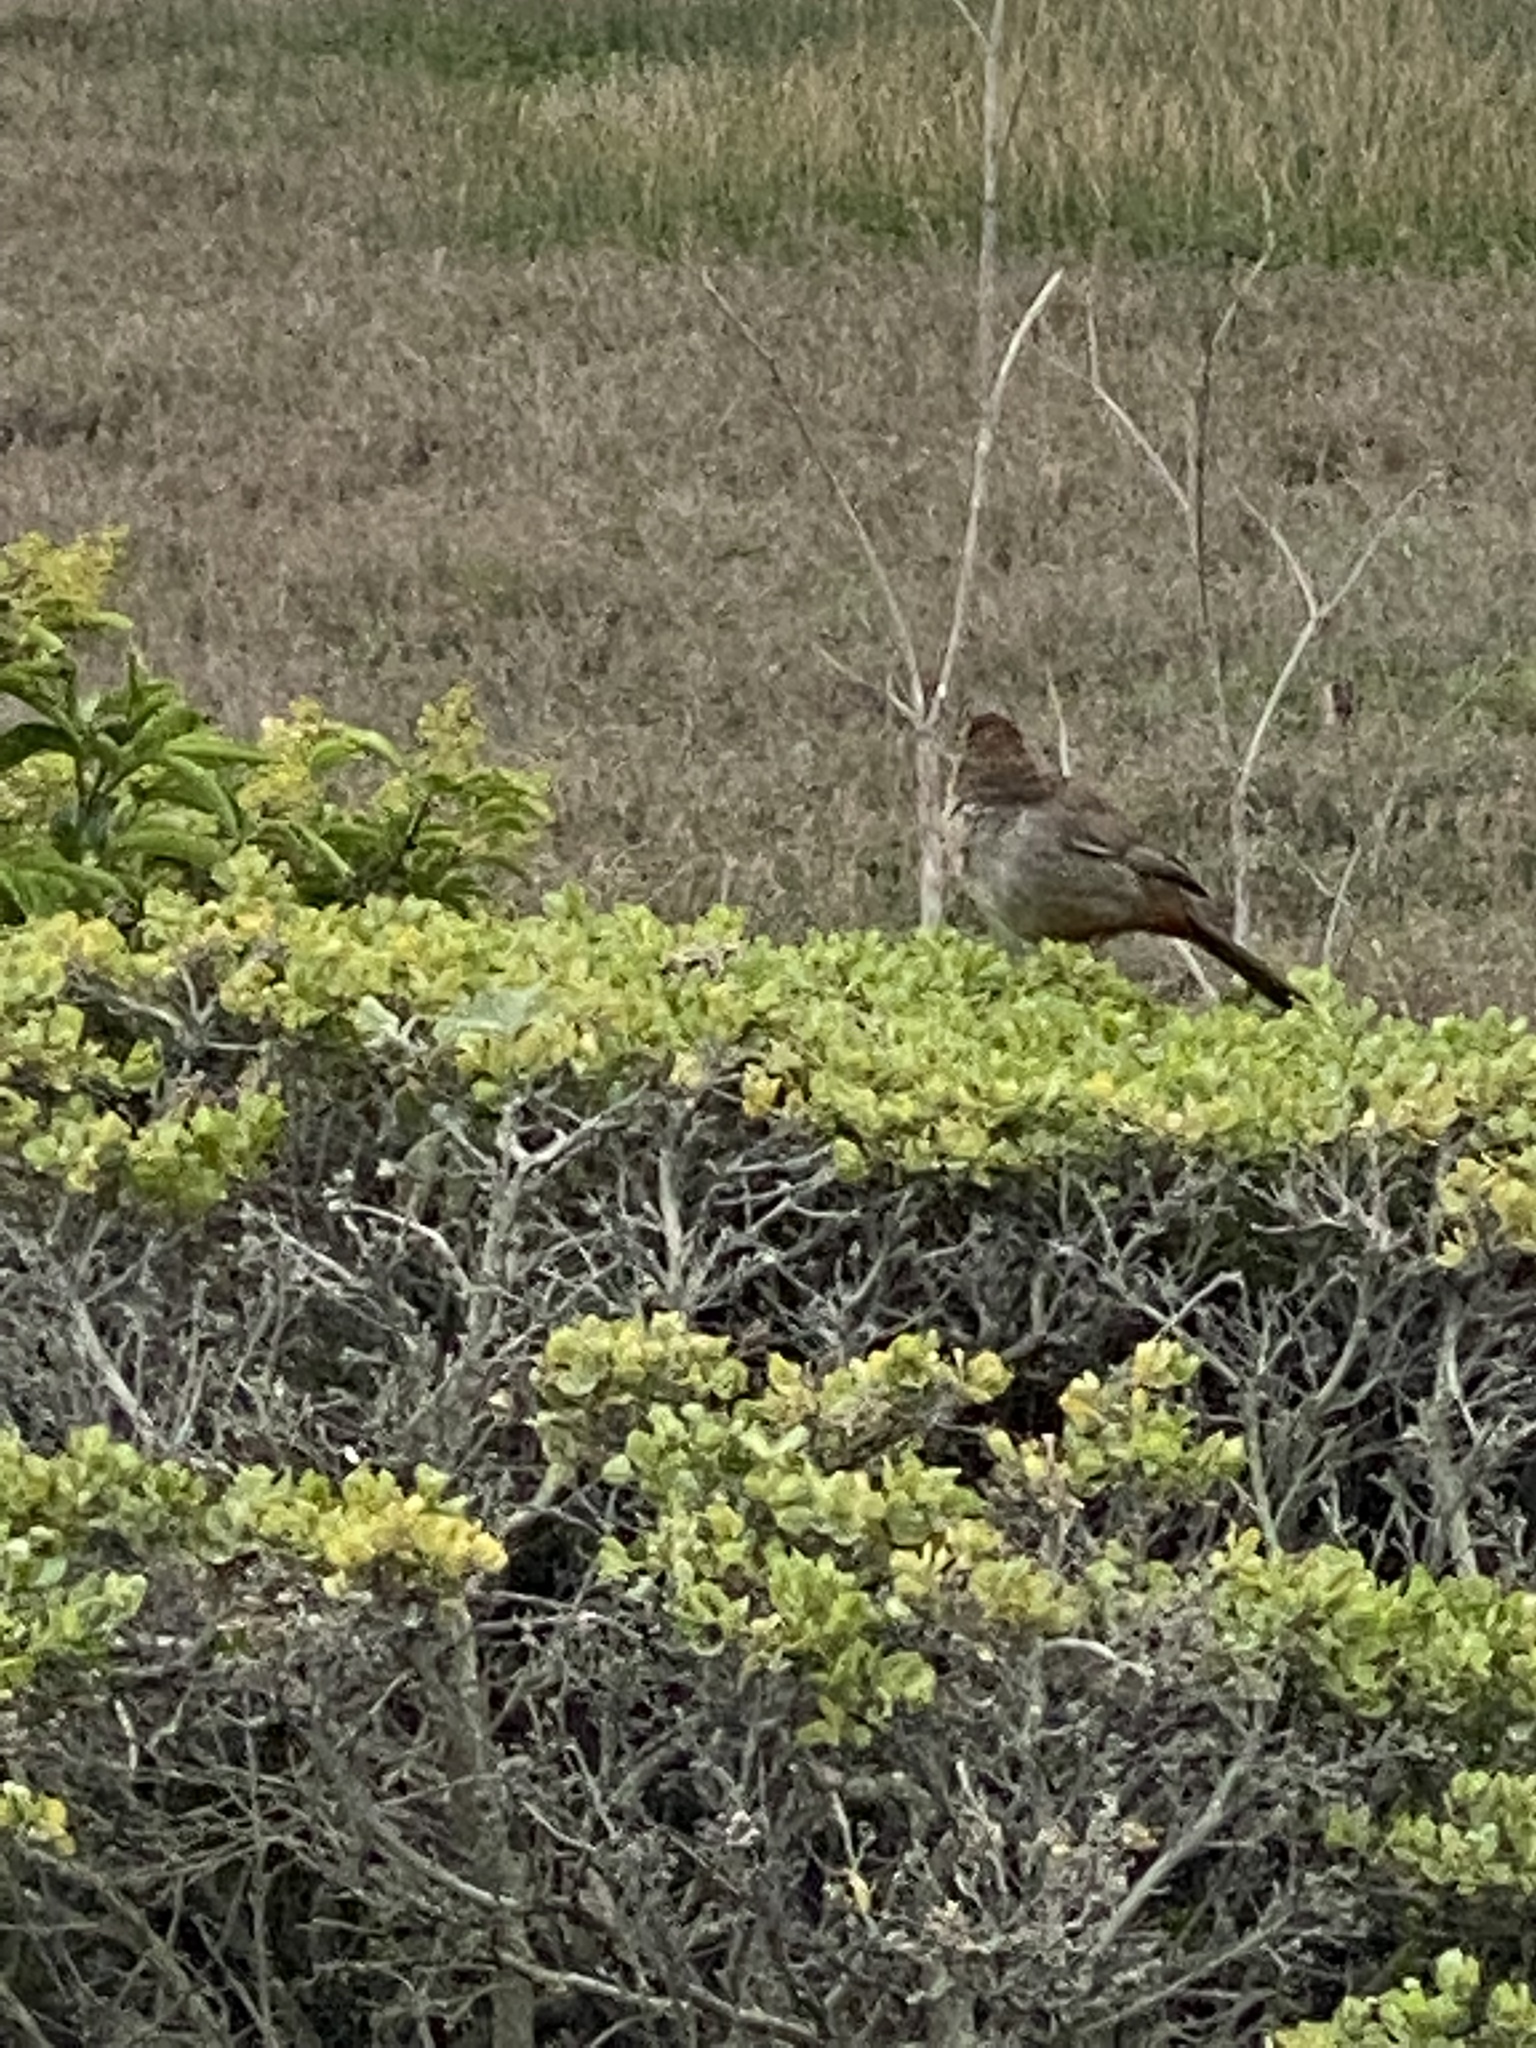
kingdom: Animalia
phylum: Chordata
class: Aves
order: Passeriformes
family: Passerellidae
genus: Melozone
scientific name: Melozone crissalis
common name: California towhee
